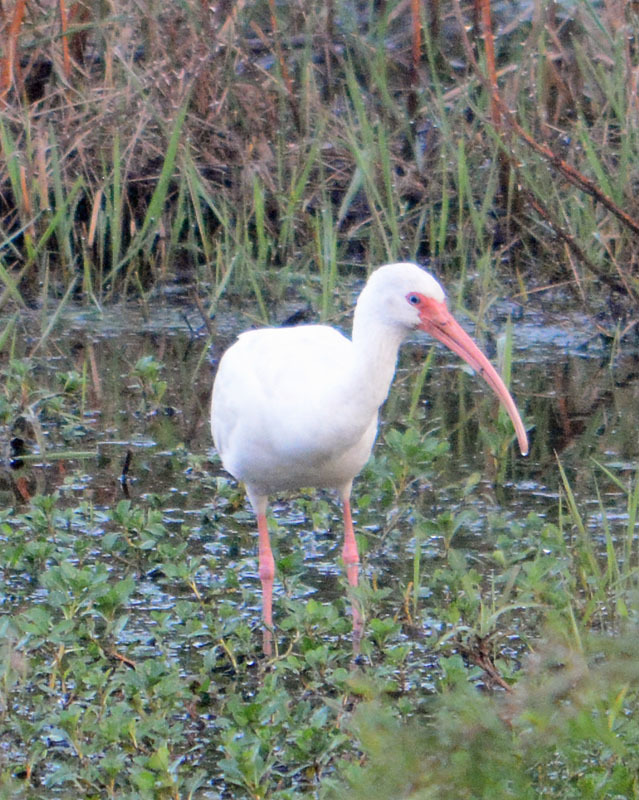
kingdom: Animalia
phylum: Chordata
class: Aves
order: Pelecaniformes
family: Threskiornithidae
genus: Eudocimus
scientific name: Eudocimus albus
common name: White ibis
